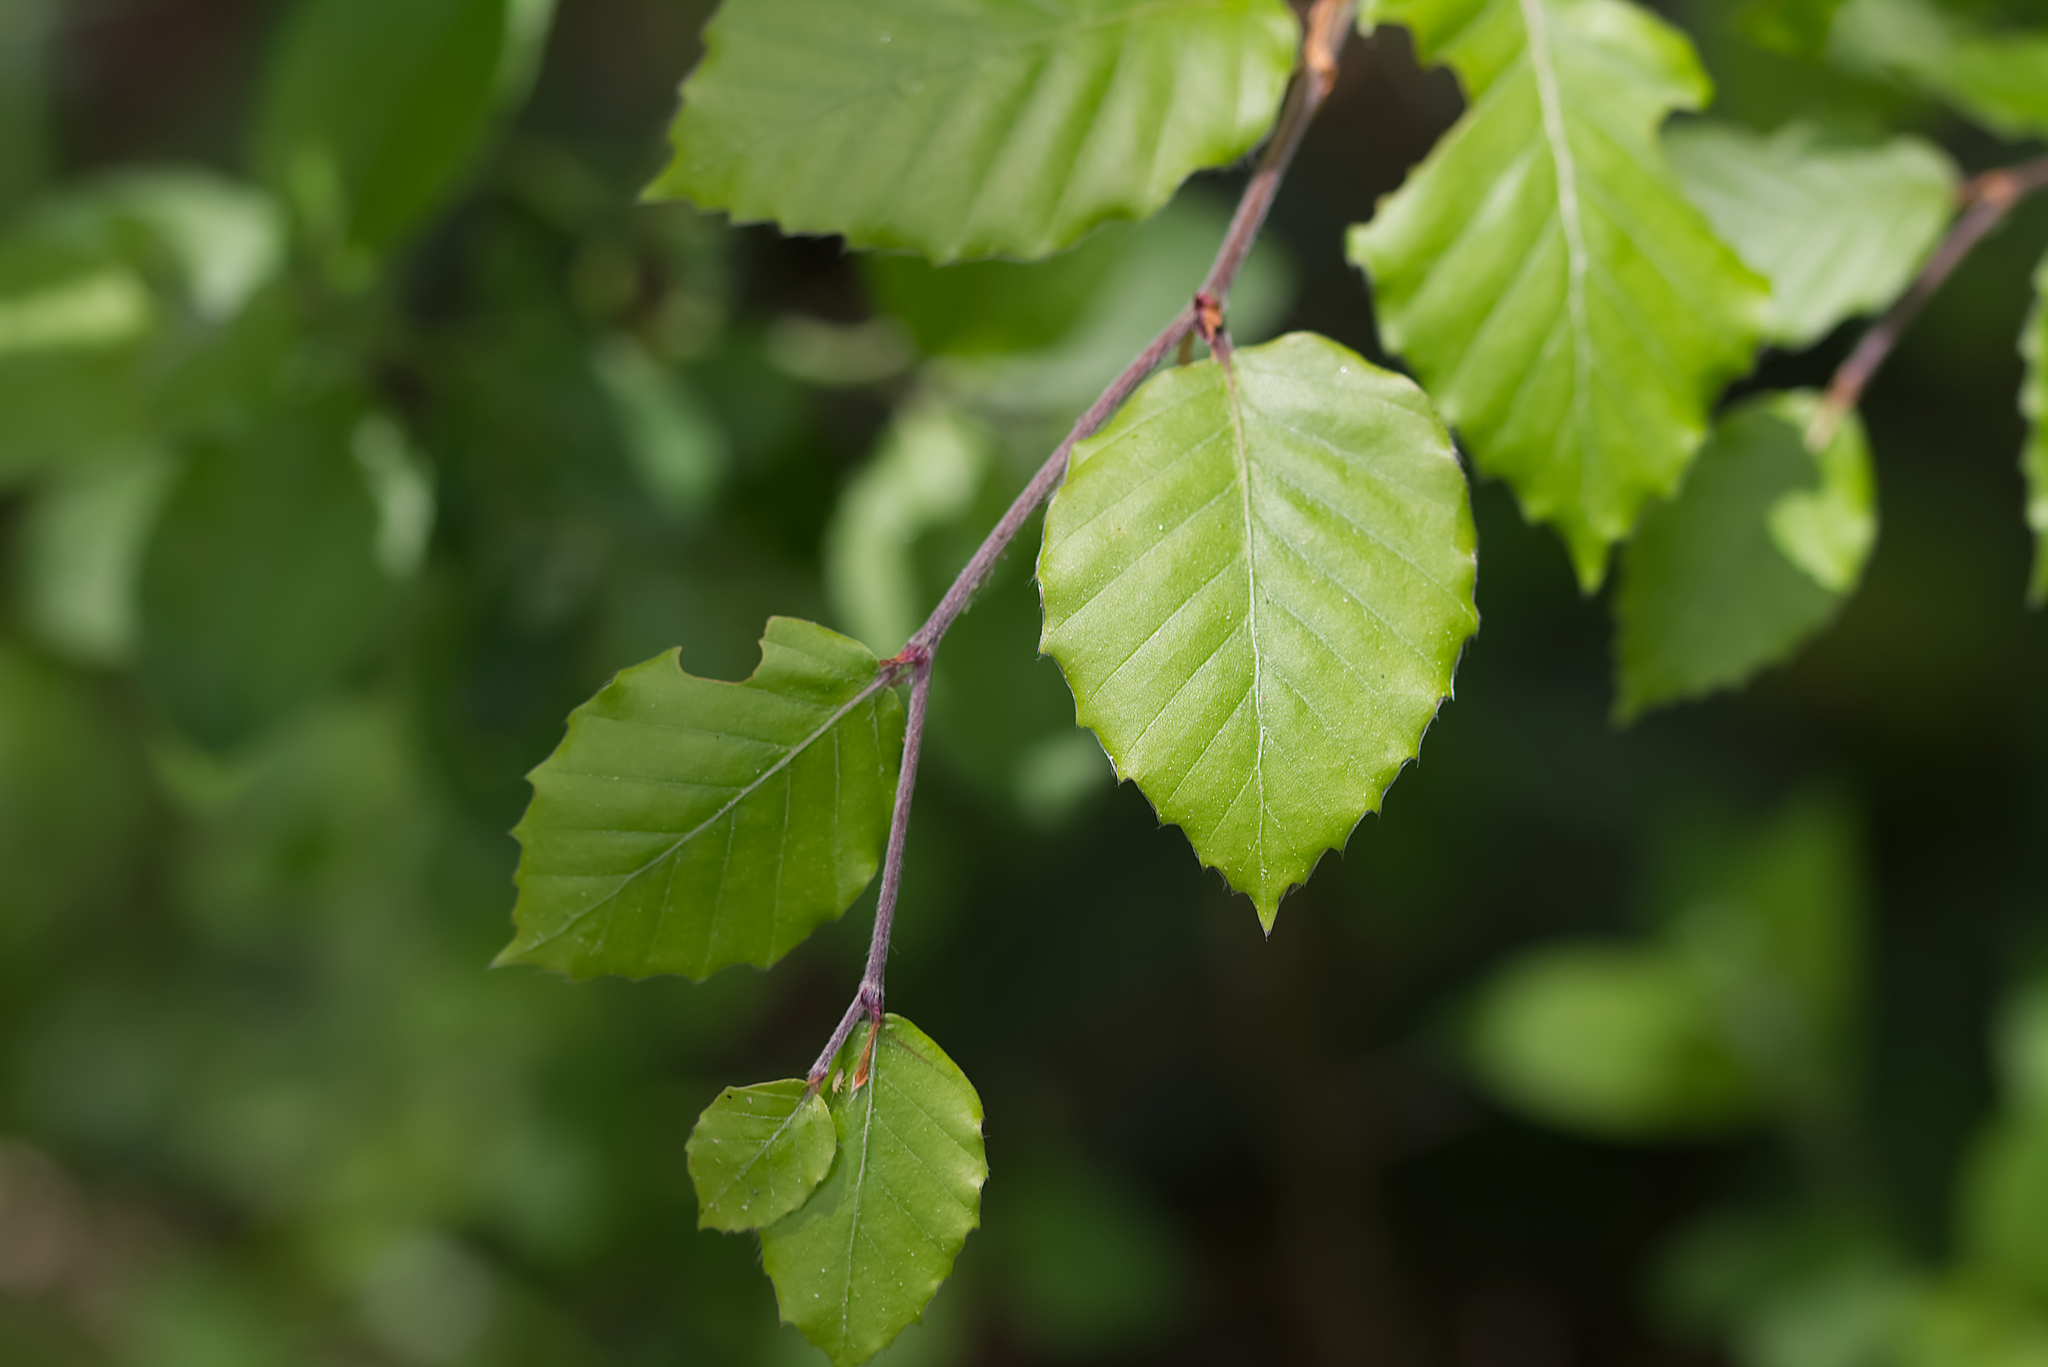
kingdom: Plantae
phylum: Tracheophyta
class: Magnoliopsida
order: Fagales
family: Fagaceae
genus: Fagus
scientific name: Fagus sylvatica
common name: Beech
